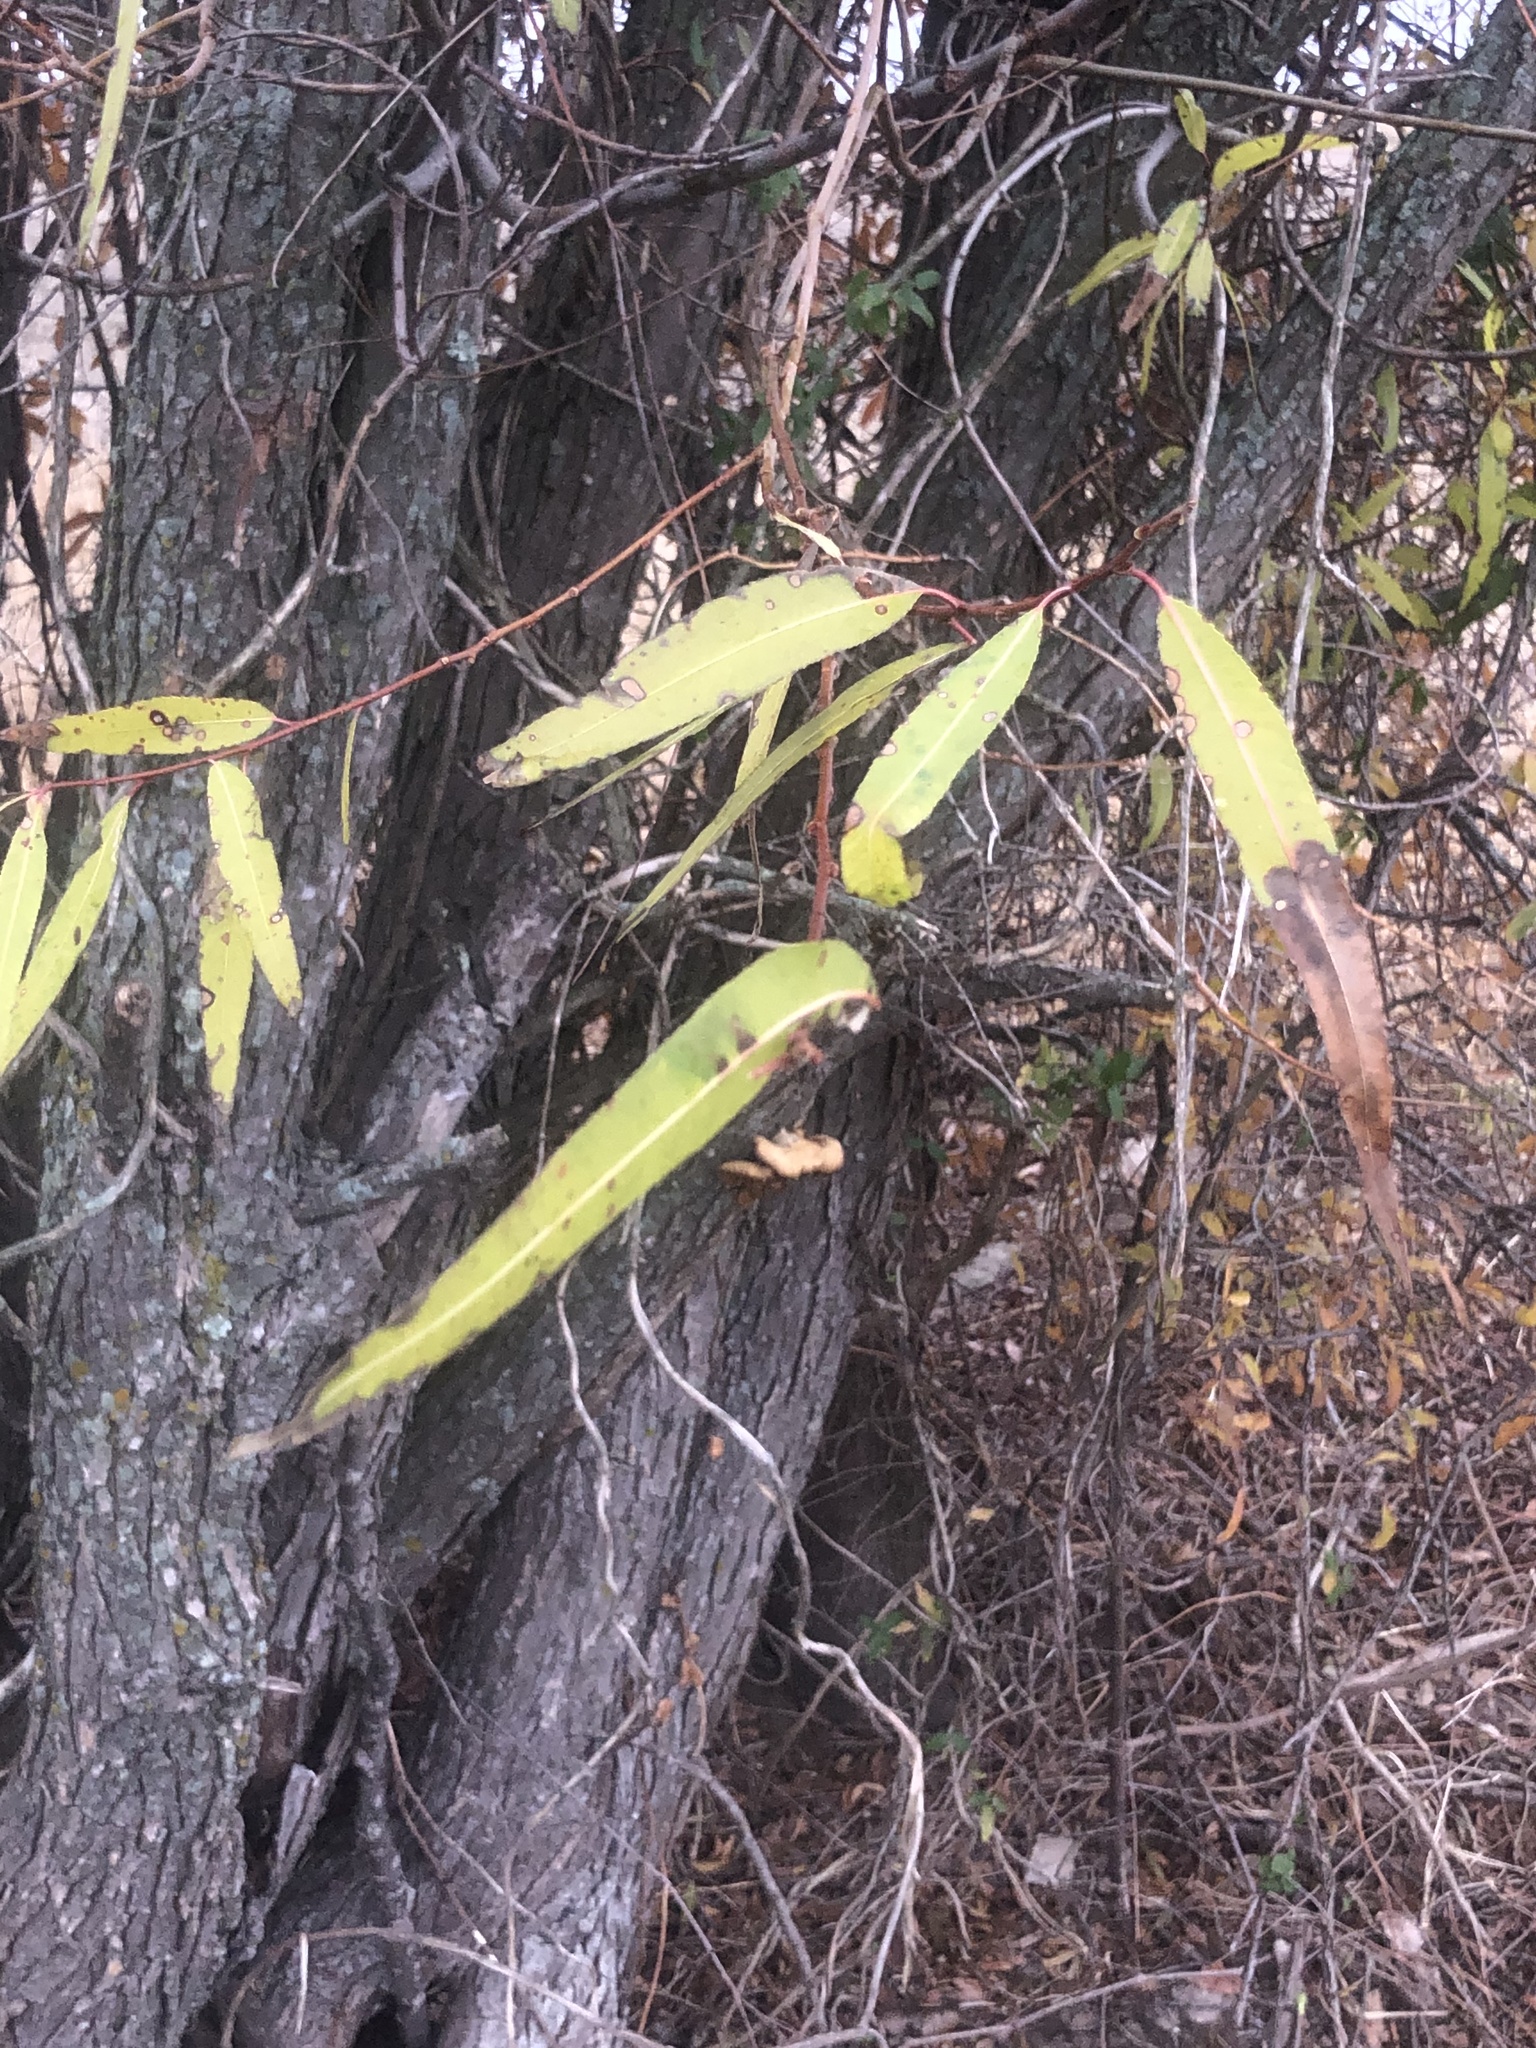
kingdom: Plantae
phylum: Tracheophyta
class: Magnoliopsida
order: Malpighiales
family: Salicaceae
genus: Salix
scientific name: Salix nigra
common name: Black willow
